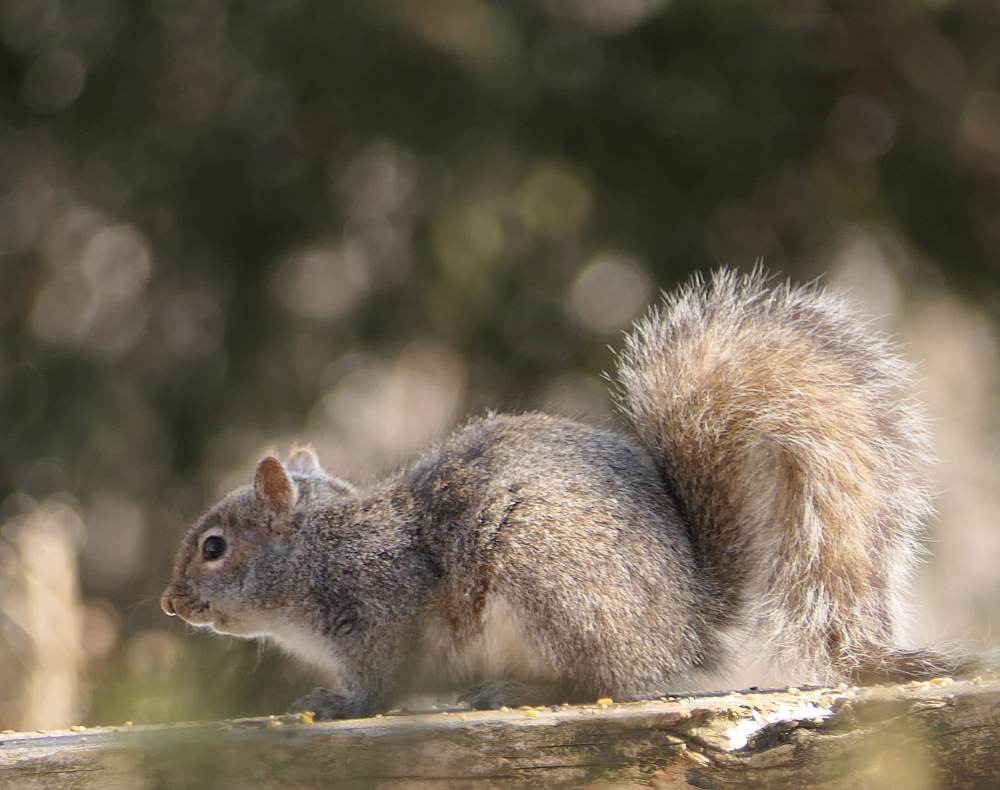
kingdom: Animalia
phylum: Chordata
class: Mammalia
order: Rodentia
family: Sciuridae
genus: Sciurus
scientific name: Sciurus carolinensis
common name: Eastern gray squirrel
